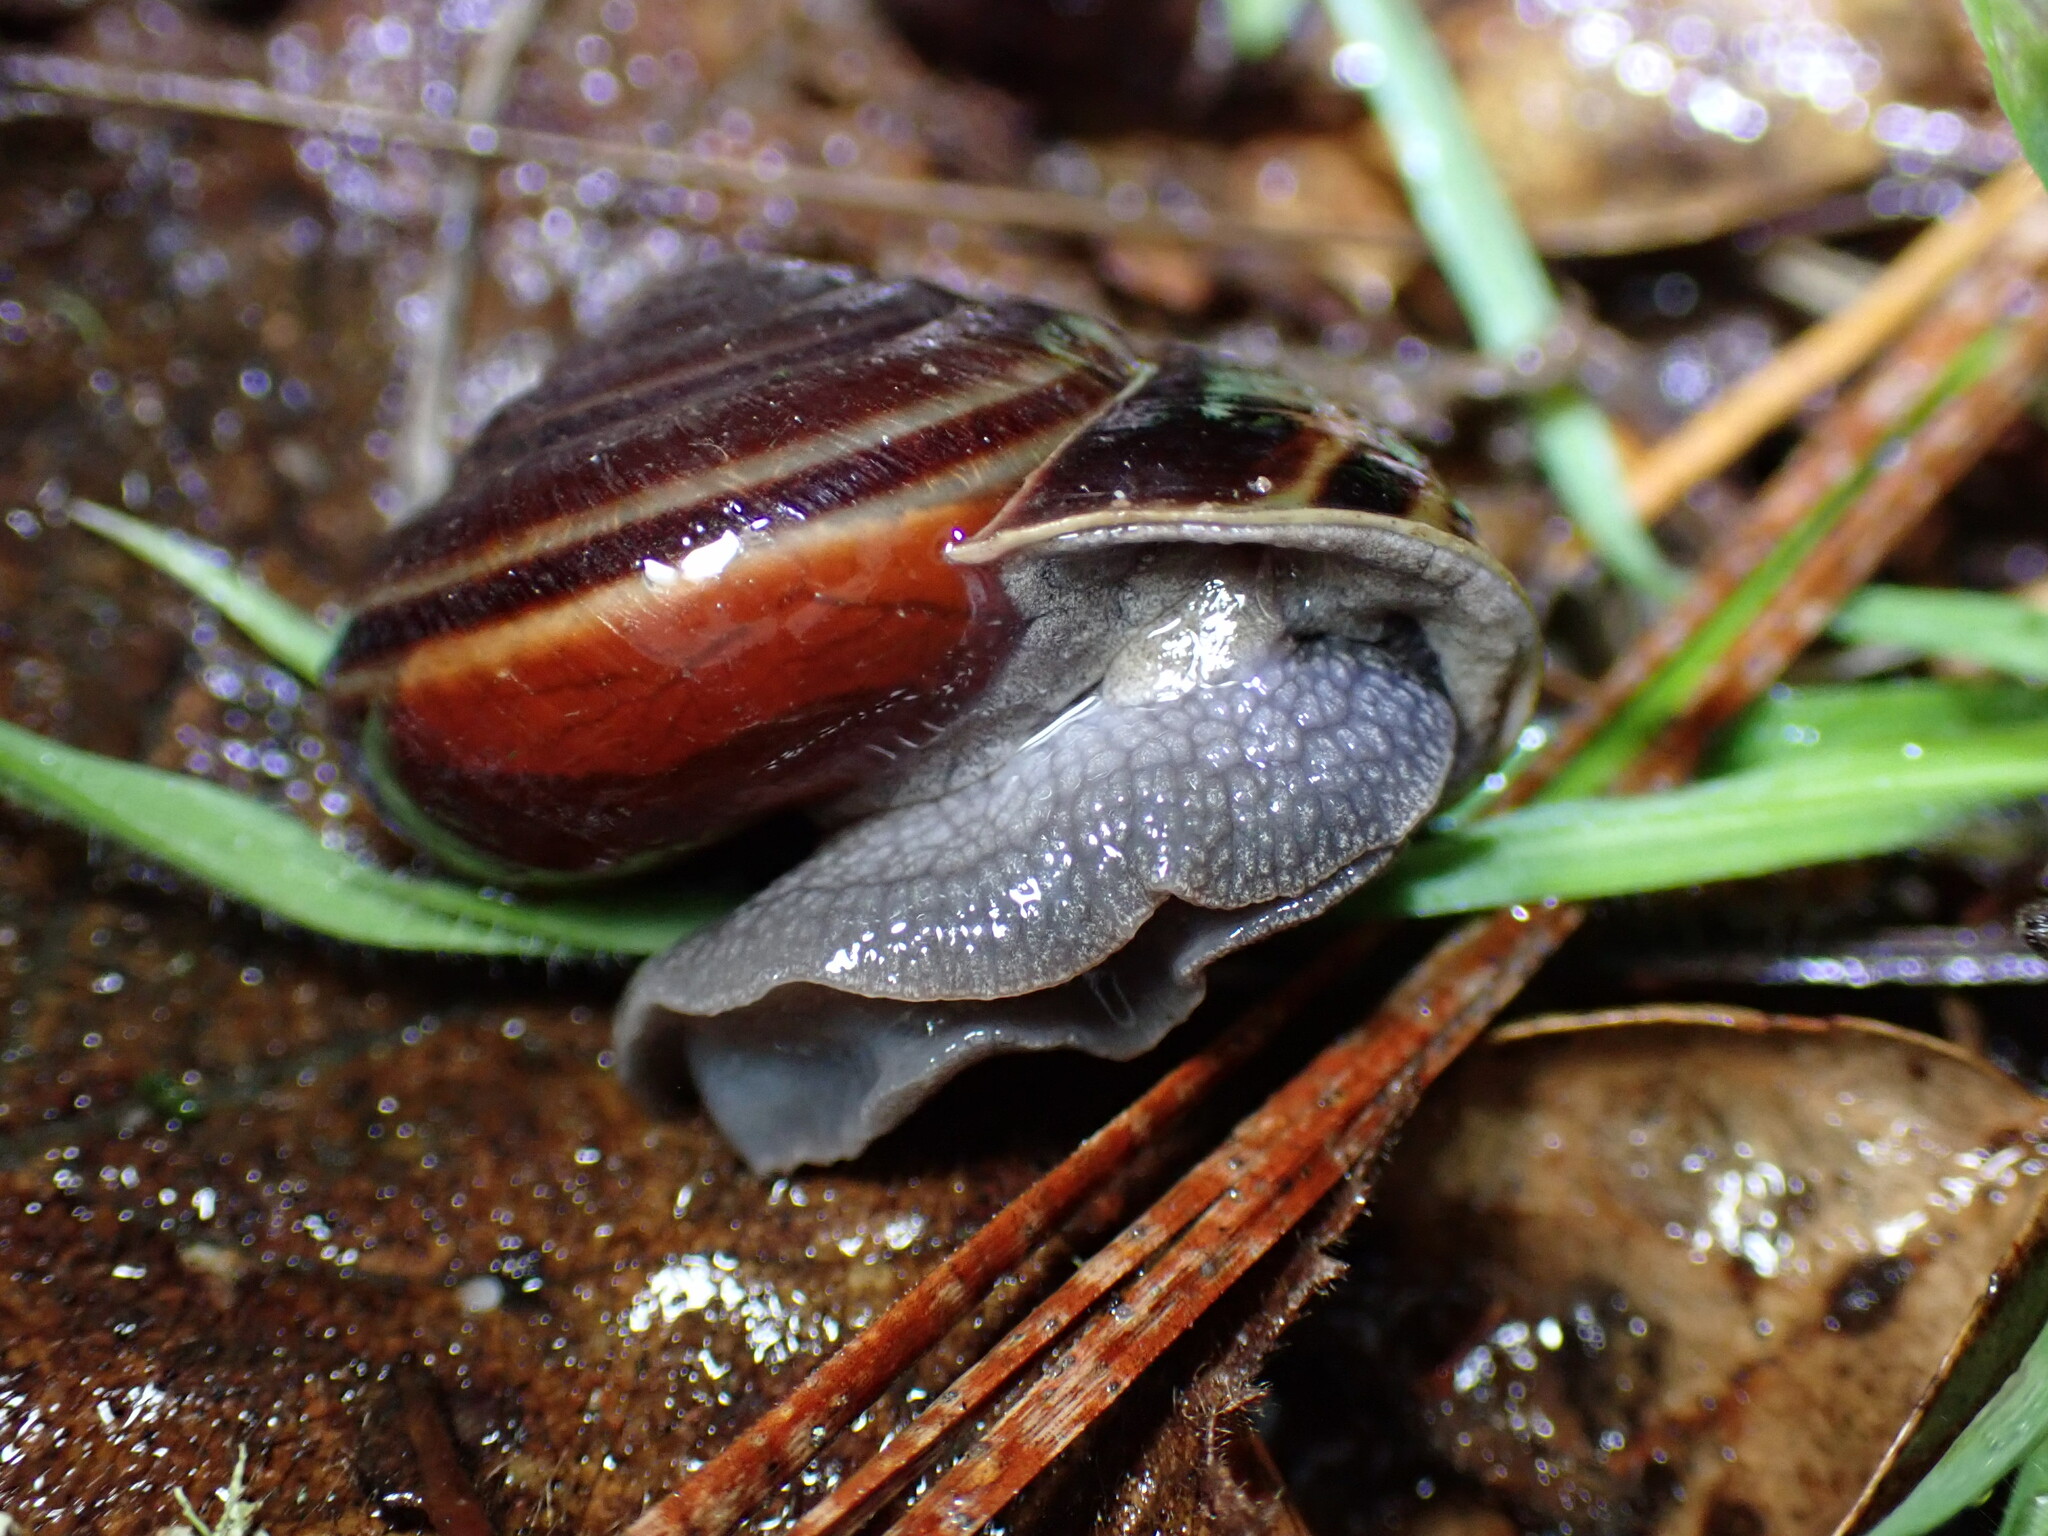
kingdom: Animalia
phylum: Mollusca
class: Gastropoda
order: Stylommatophora
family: Xanthonychidae
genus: Helminthoglypta
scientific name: Helminthoglypta sequoicola
